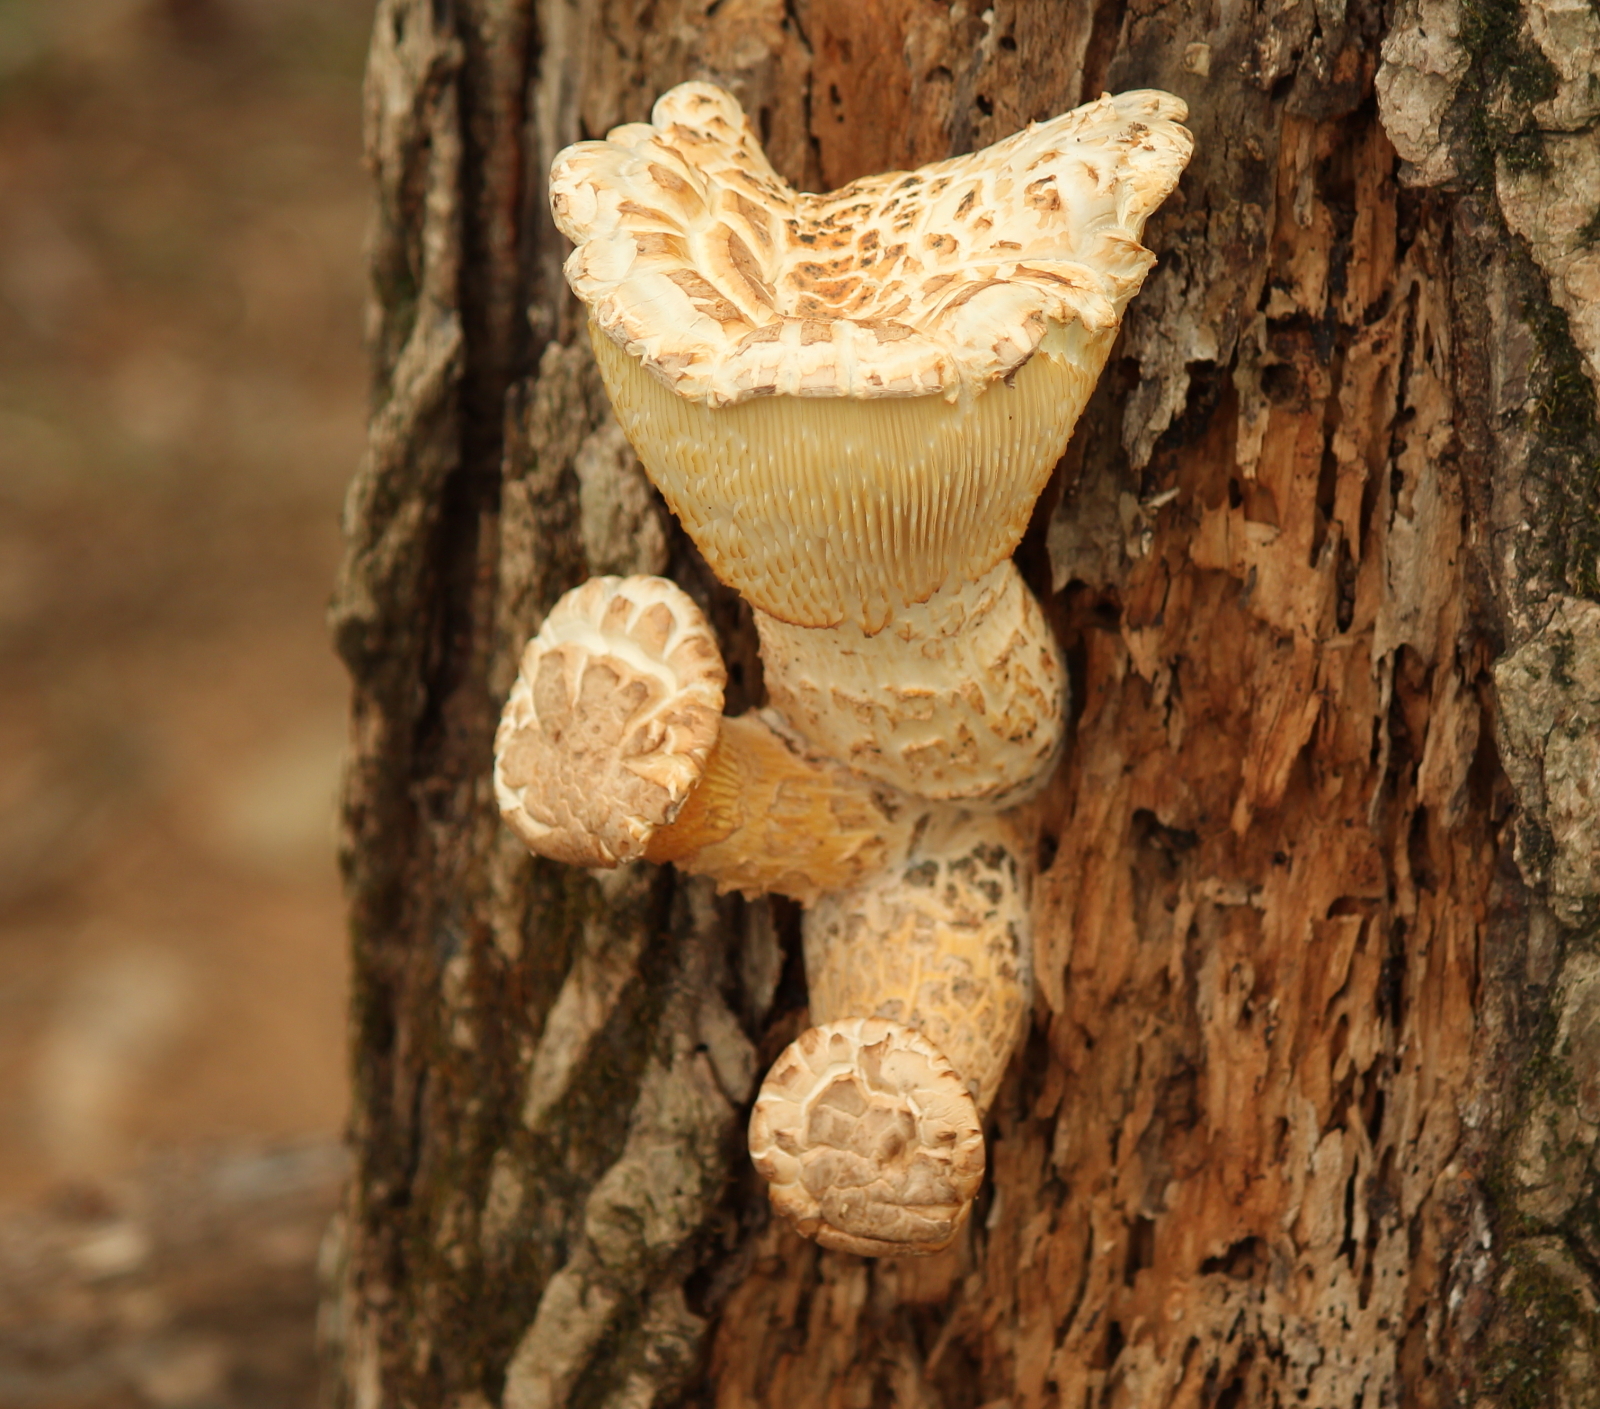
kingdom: Fungi
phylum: Basidiomycota
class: Agaricomycetes
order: Gloeophyllales
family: Gloeophyllaceae
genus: Neolentinus
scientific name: Neolentinus lepideus
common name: Scaly sawgill
